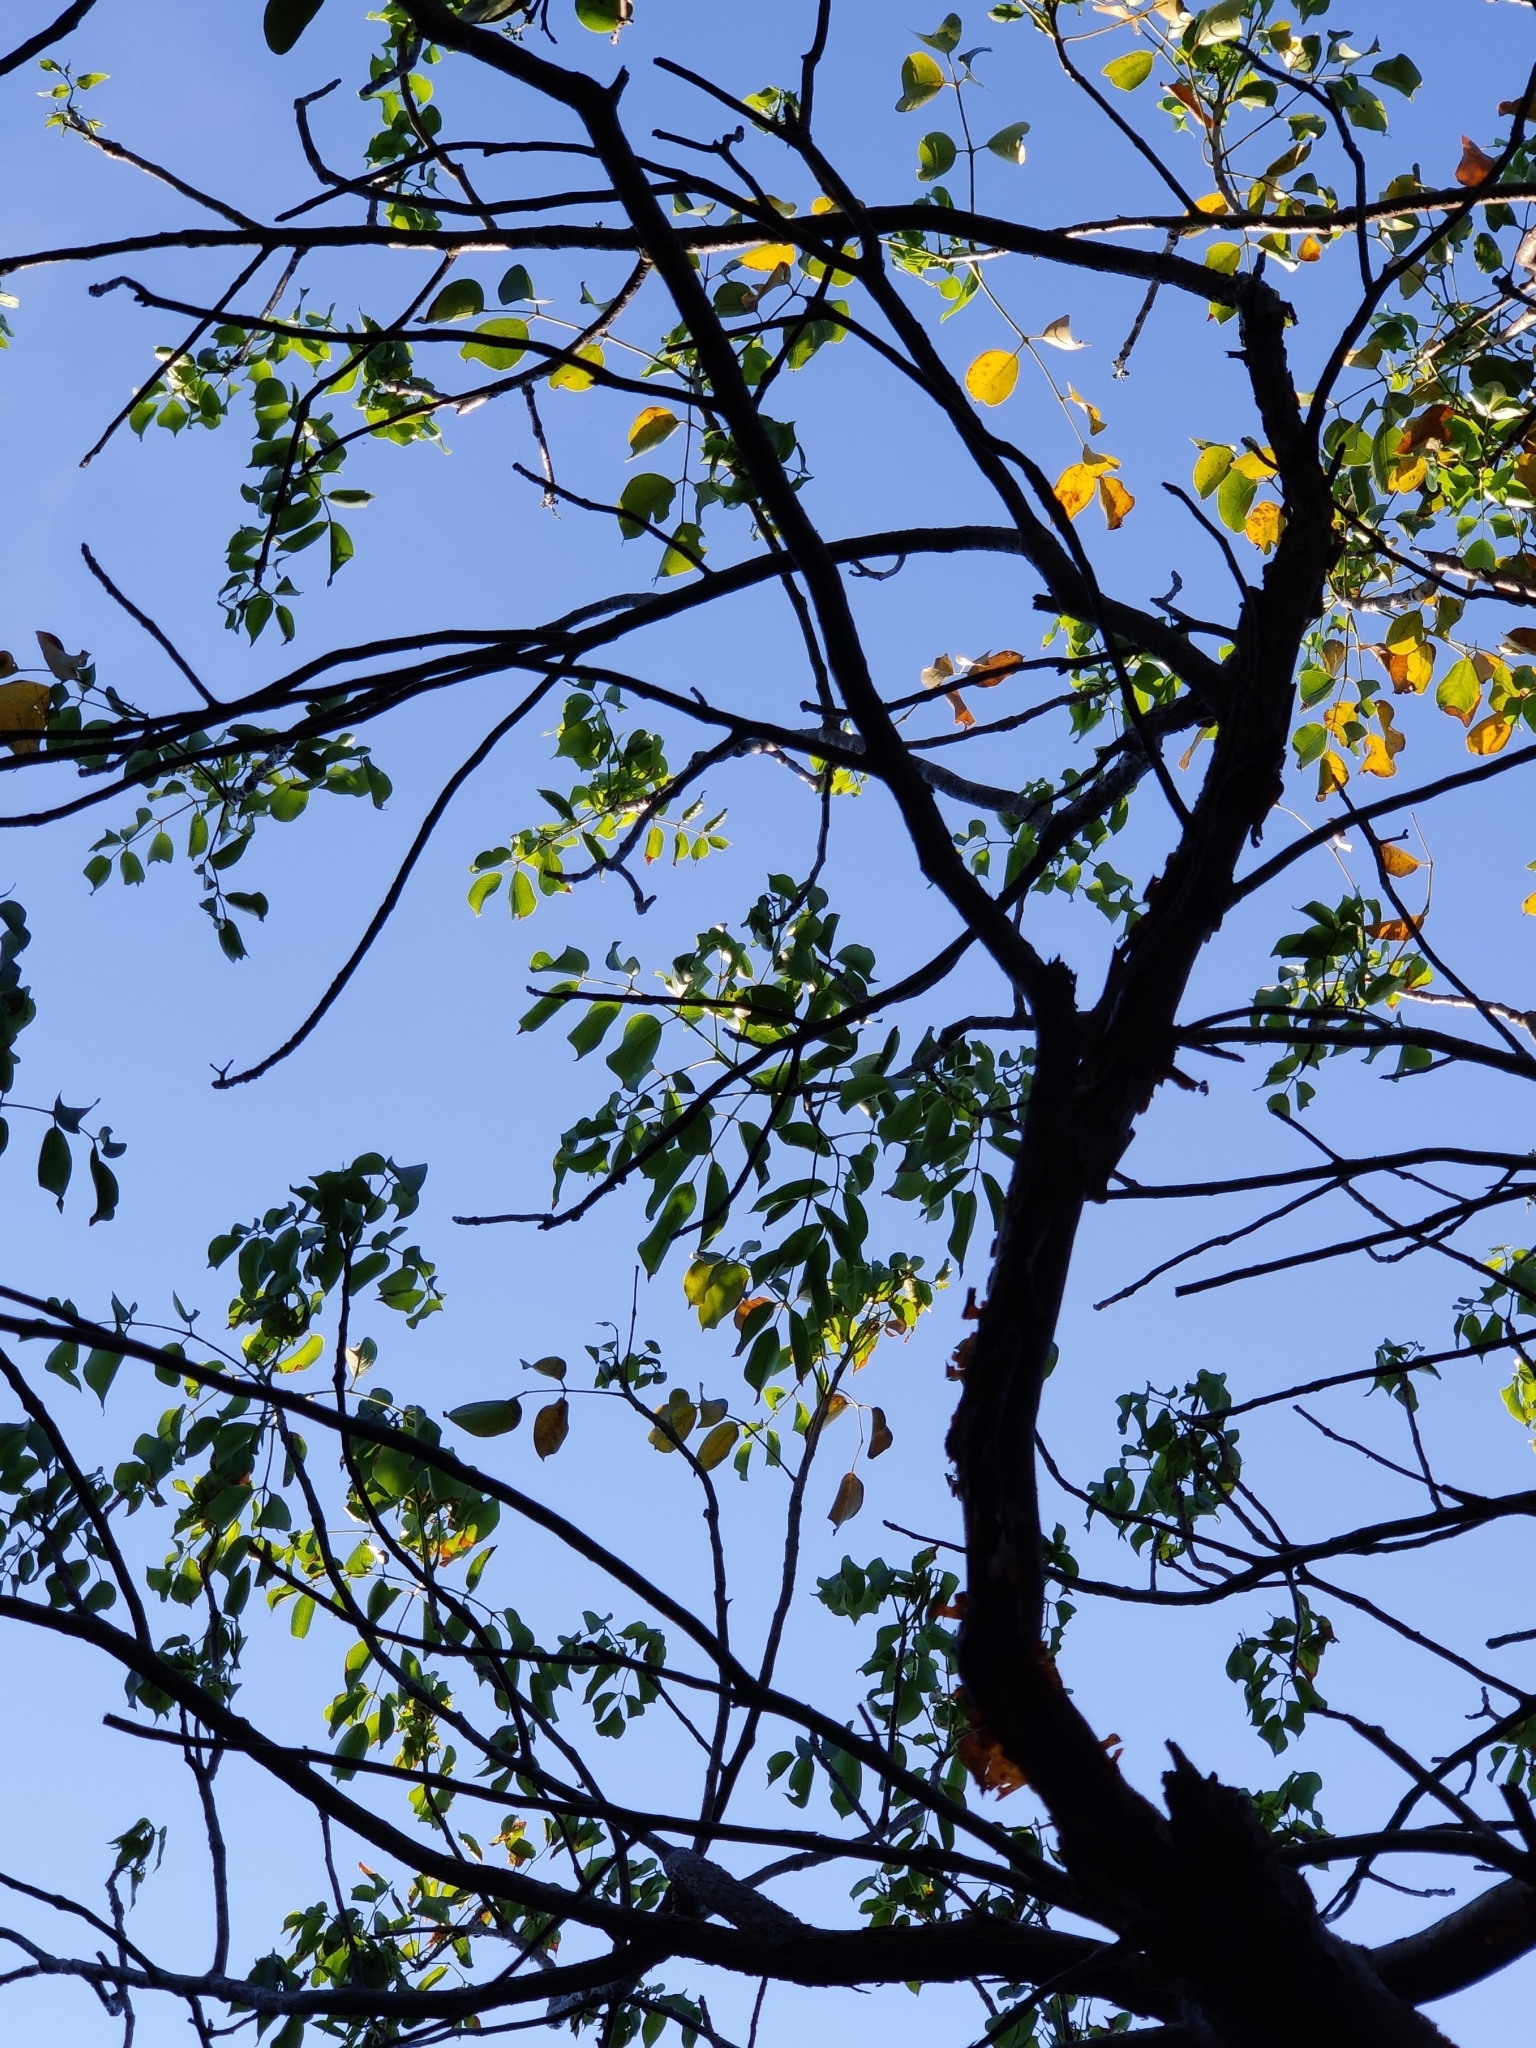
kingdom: Plantae
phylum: Tracheophyta
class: Magnoliopsida
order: Sapindales
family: Burseraceae
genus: Bursera
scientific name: Bursera simaruba
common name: Turpentine tree
